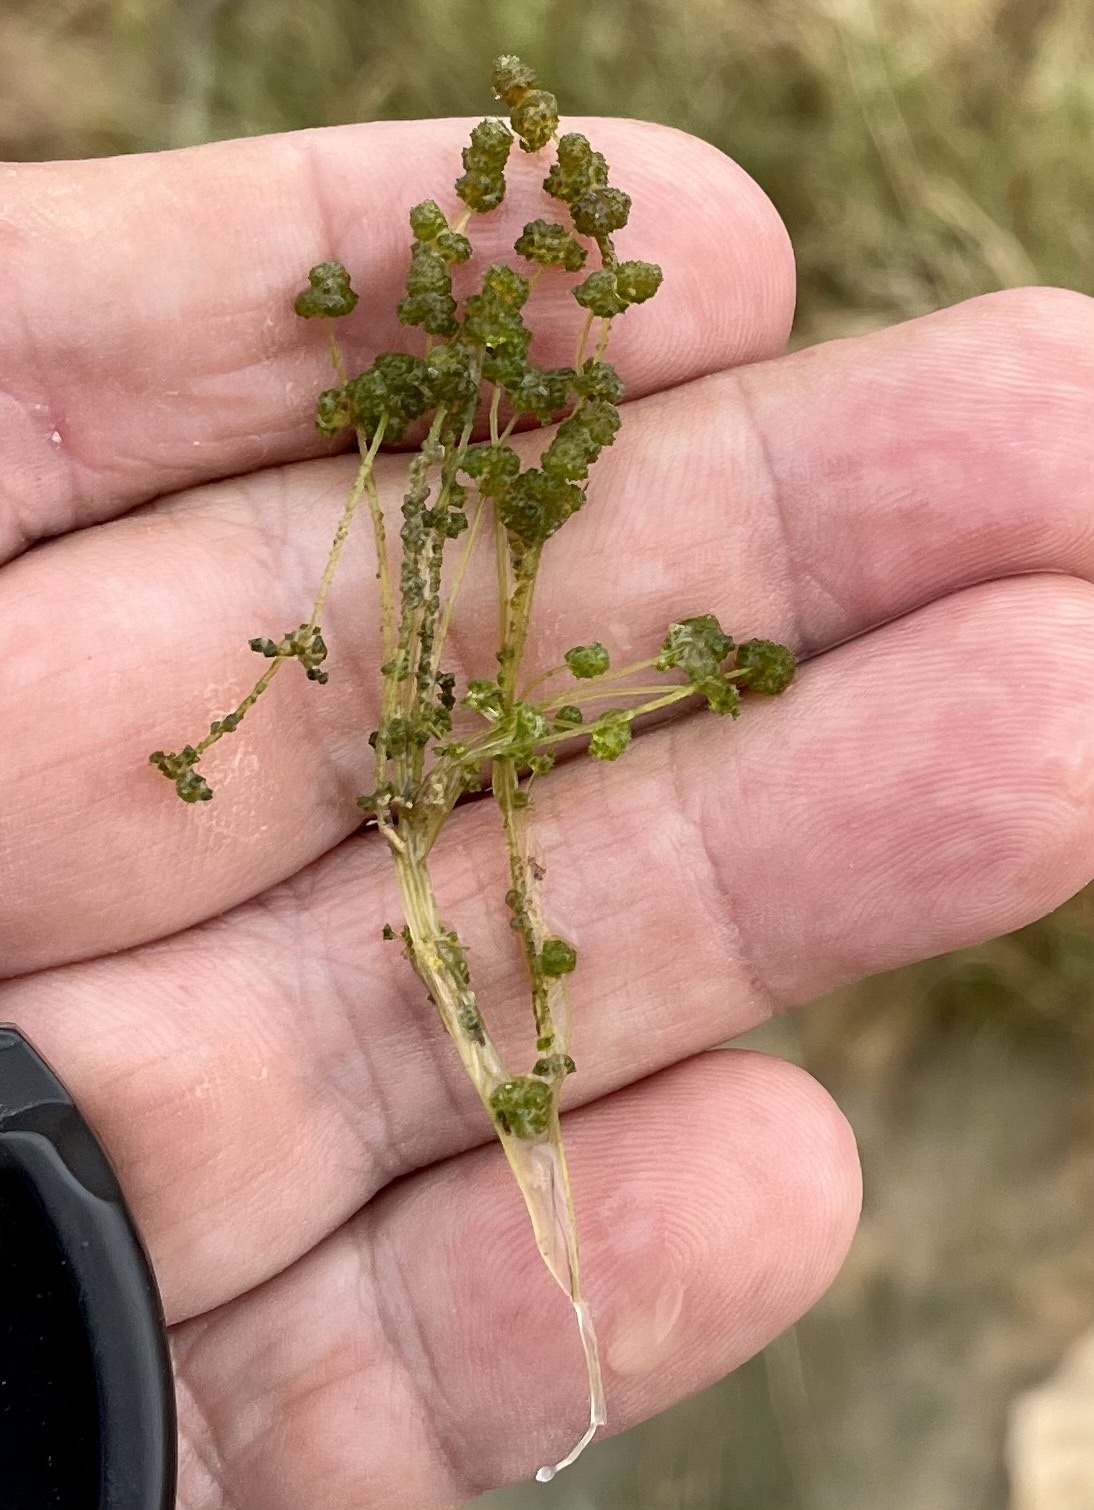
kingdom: Plantae
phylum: Charophyta
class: Charophyceae
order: Charales
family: Characeae
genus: Nitella
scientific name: Nitella
